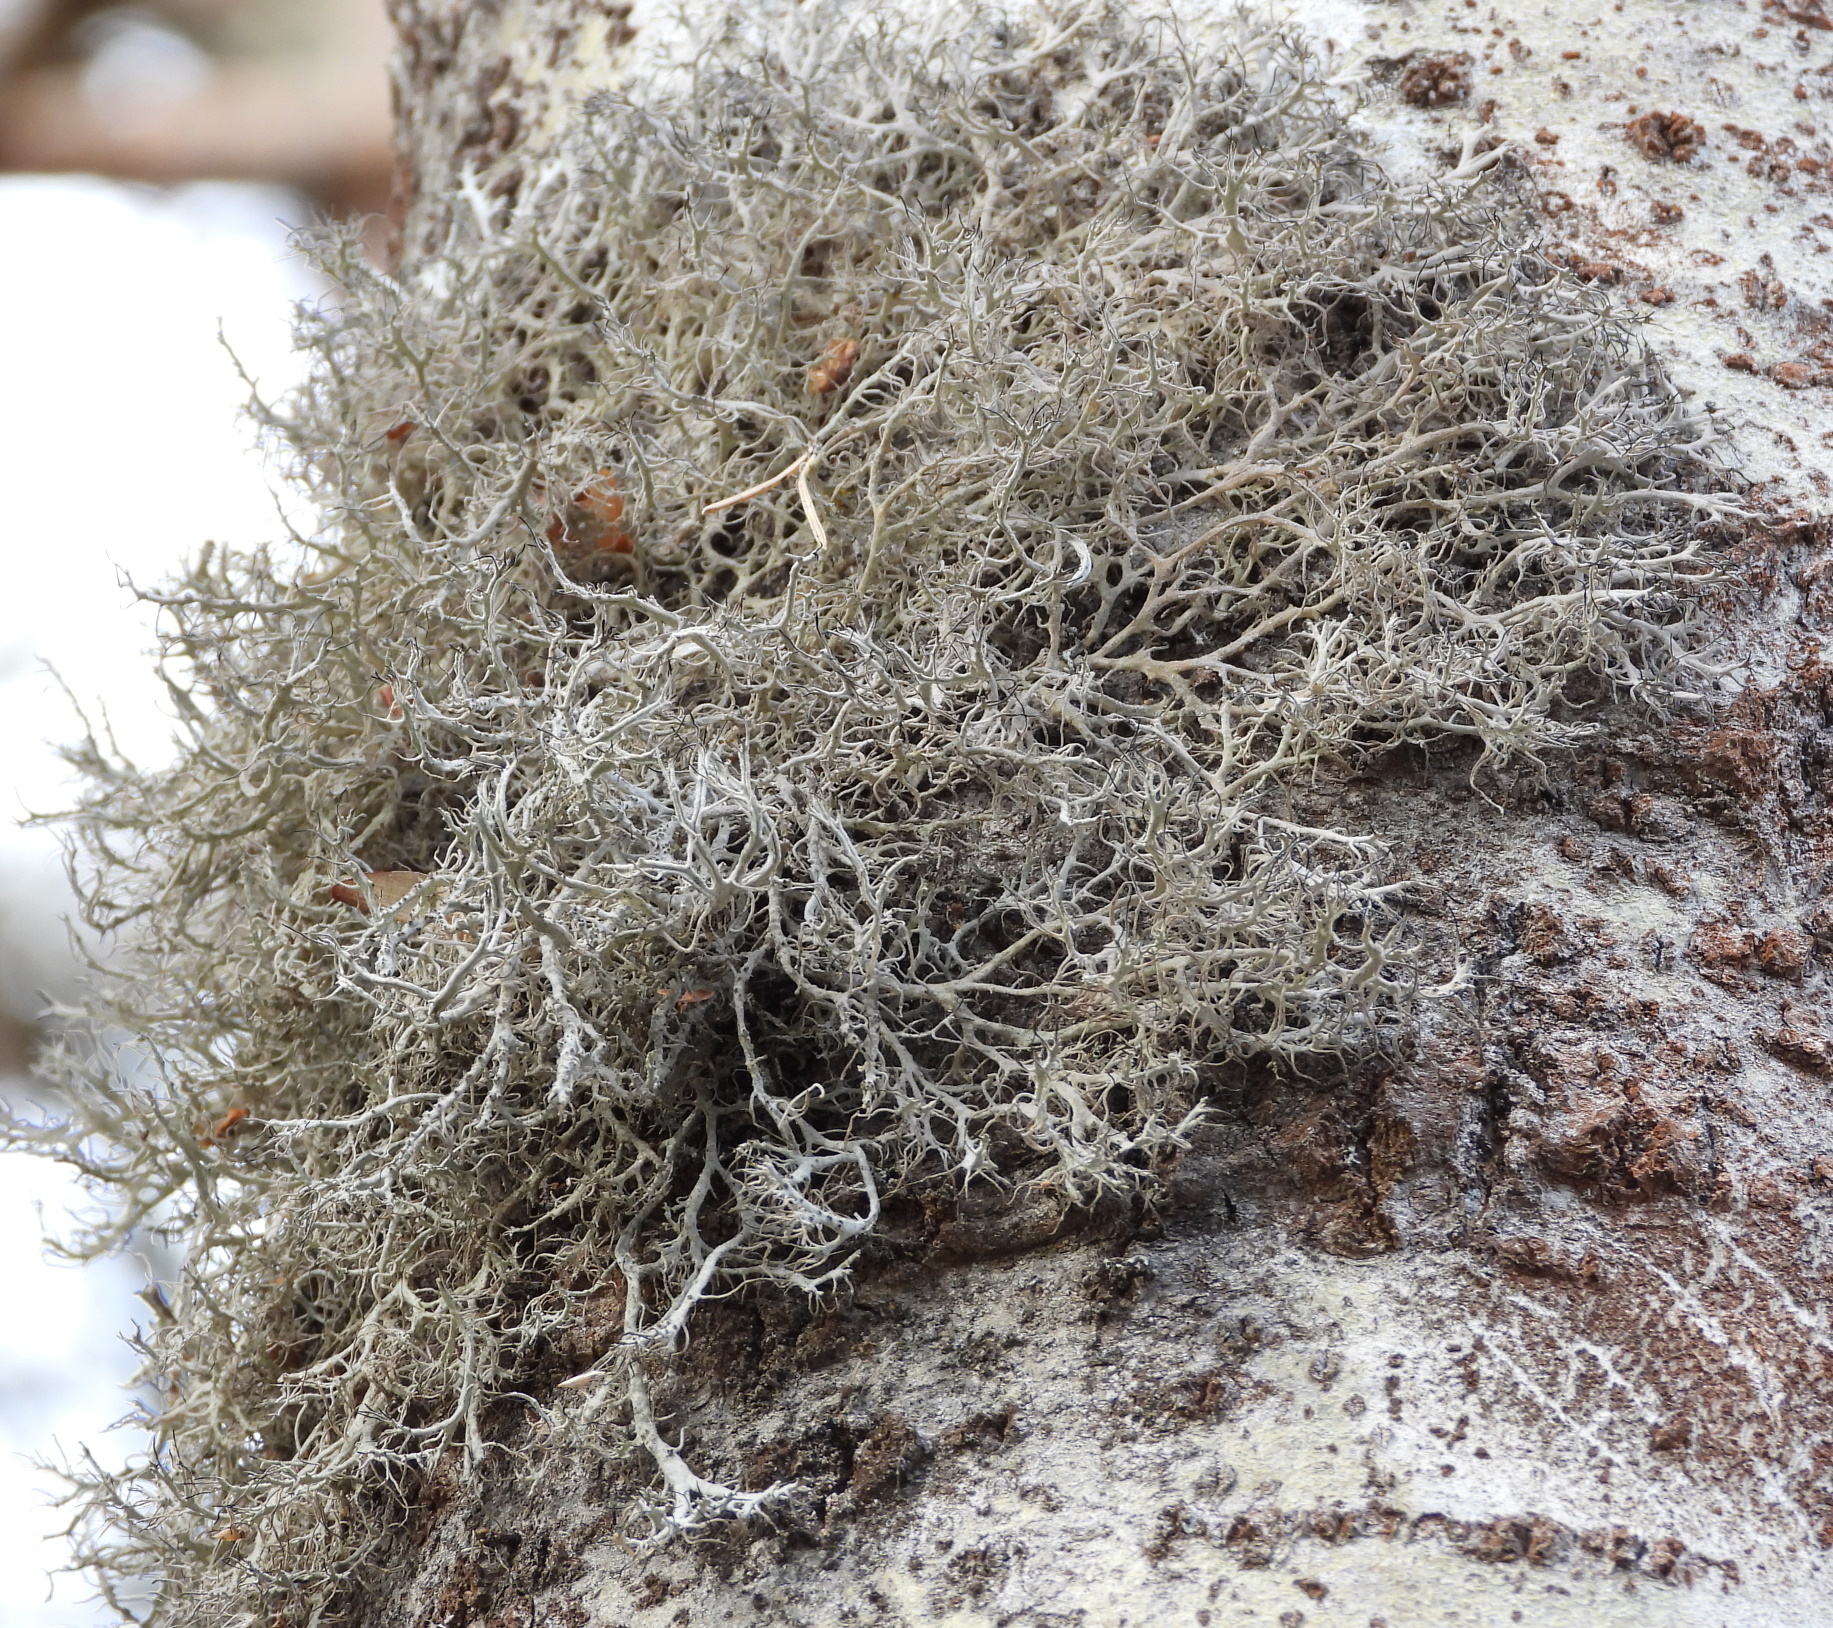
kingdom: Fungi
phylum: Ascomycota
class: Lecanoromycetes
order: Caliciales
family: Physciaceae
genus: Anaptychia
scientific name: Anaptychia ciliaris
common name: Great ciliated lichen
